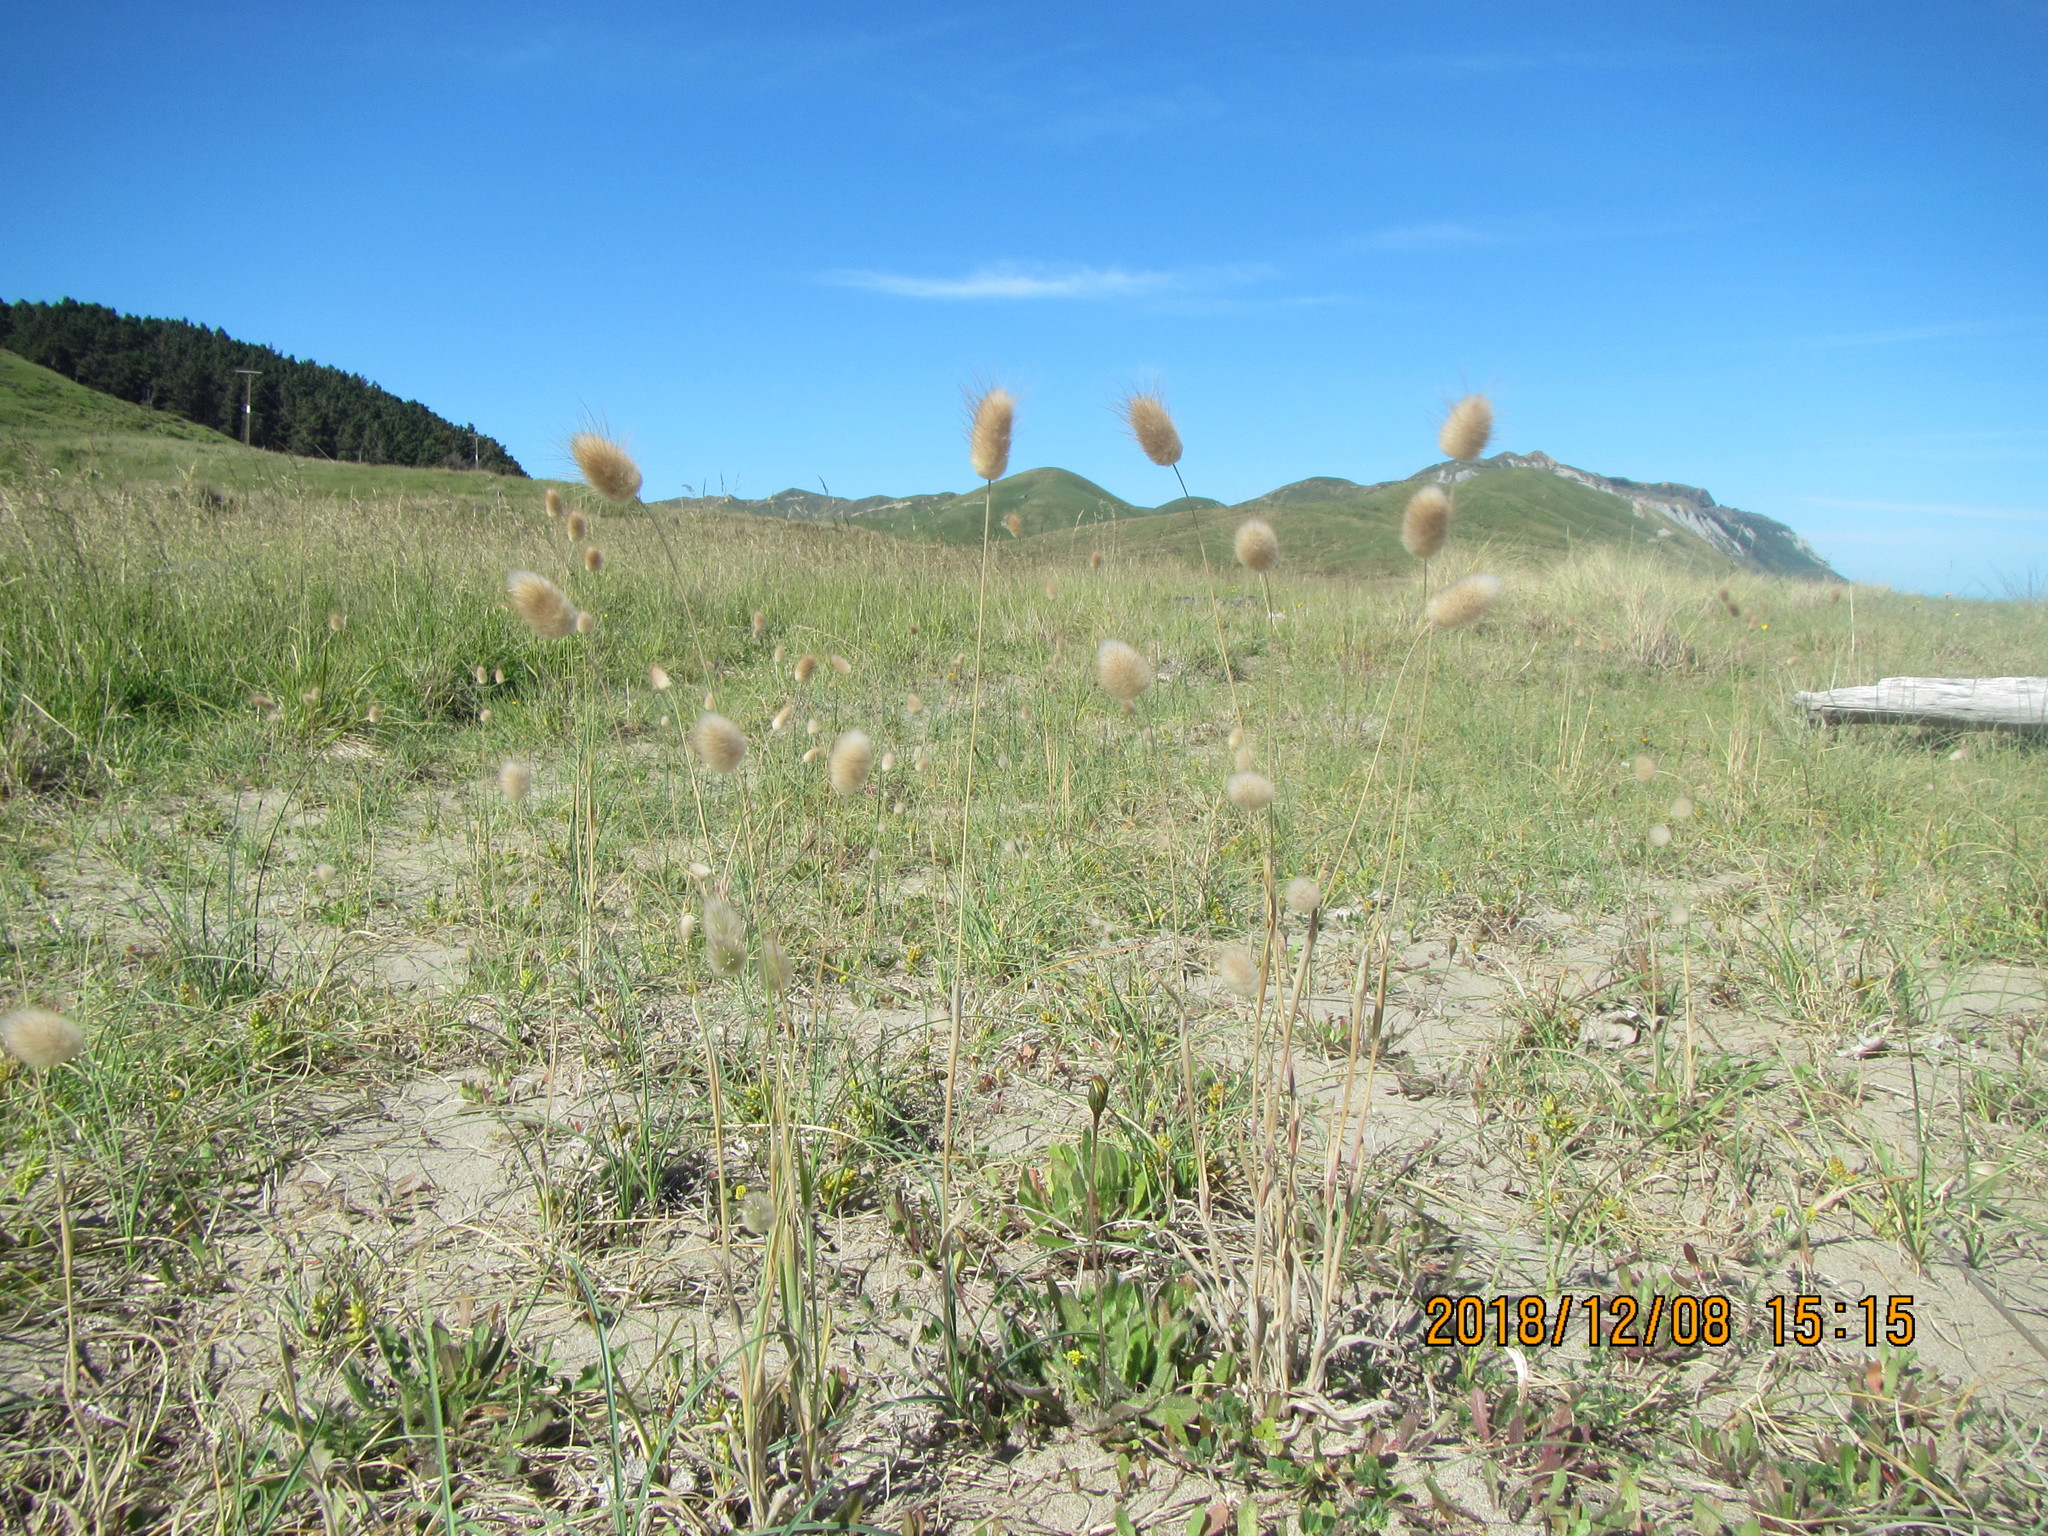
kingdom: Plantae
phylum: Tracheophyta
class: Liliopsida
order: Poales
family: Poaceae
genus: Lagurus
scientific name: Lagurus ovatus
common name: Hare's-tail
